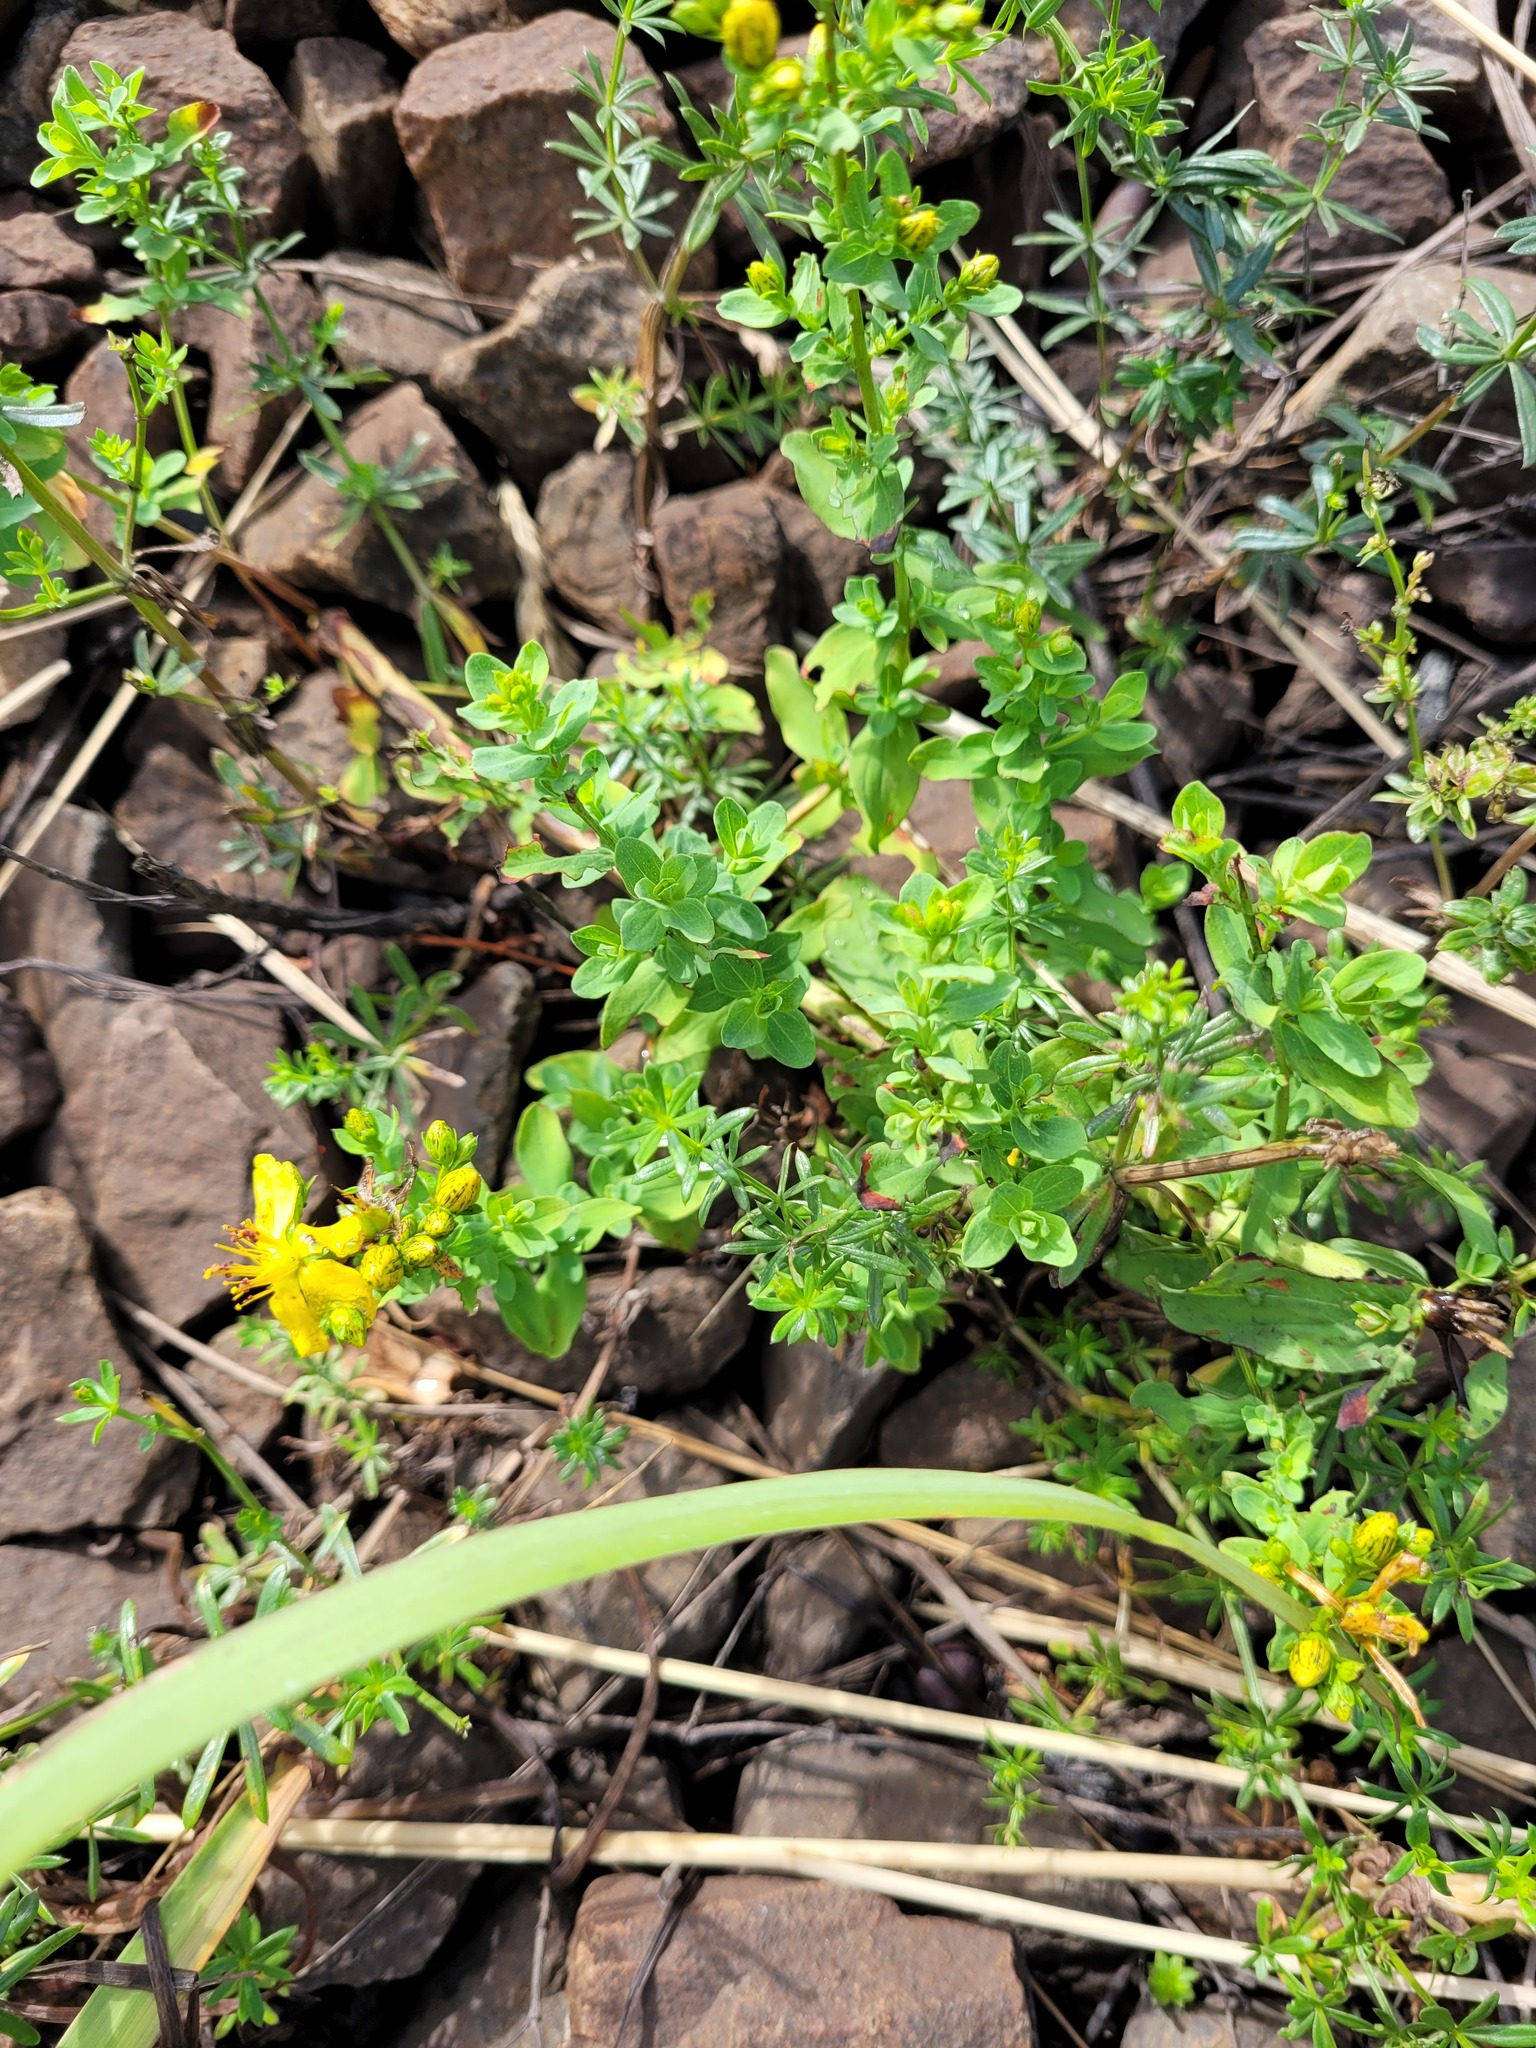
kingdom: Plantae
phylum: Tracheophyta
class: Magnoliopsida
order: Malpighiales
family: Hypericaceae
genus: Hypericum
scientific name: Hypericum perforatum
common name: Common st. johnswort
